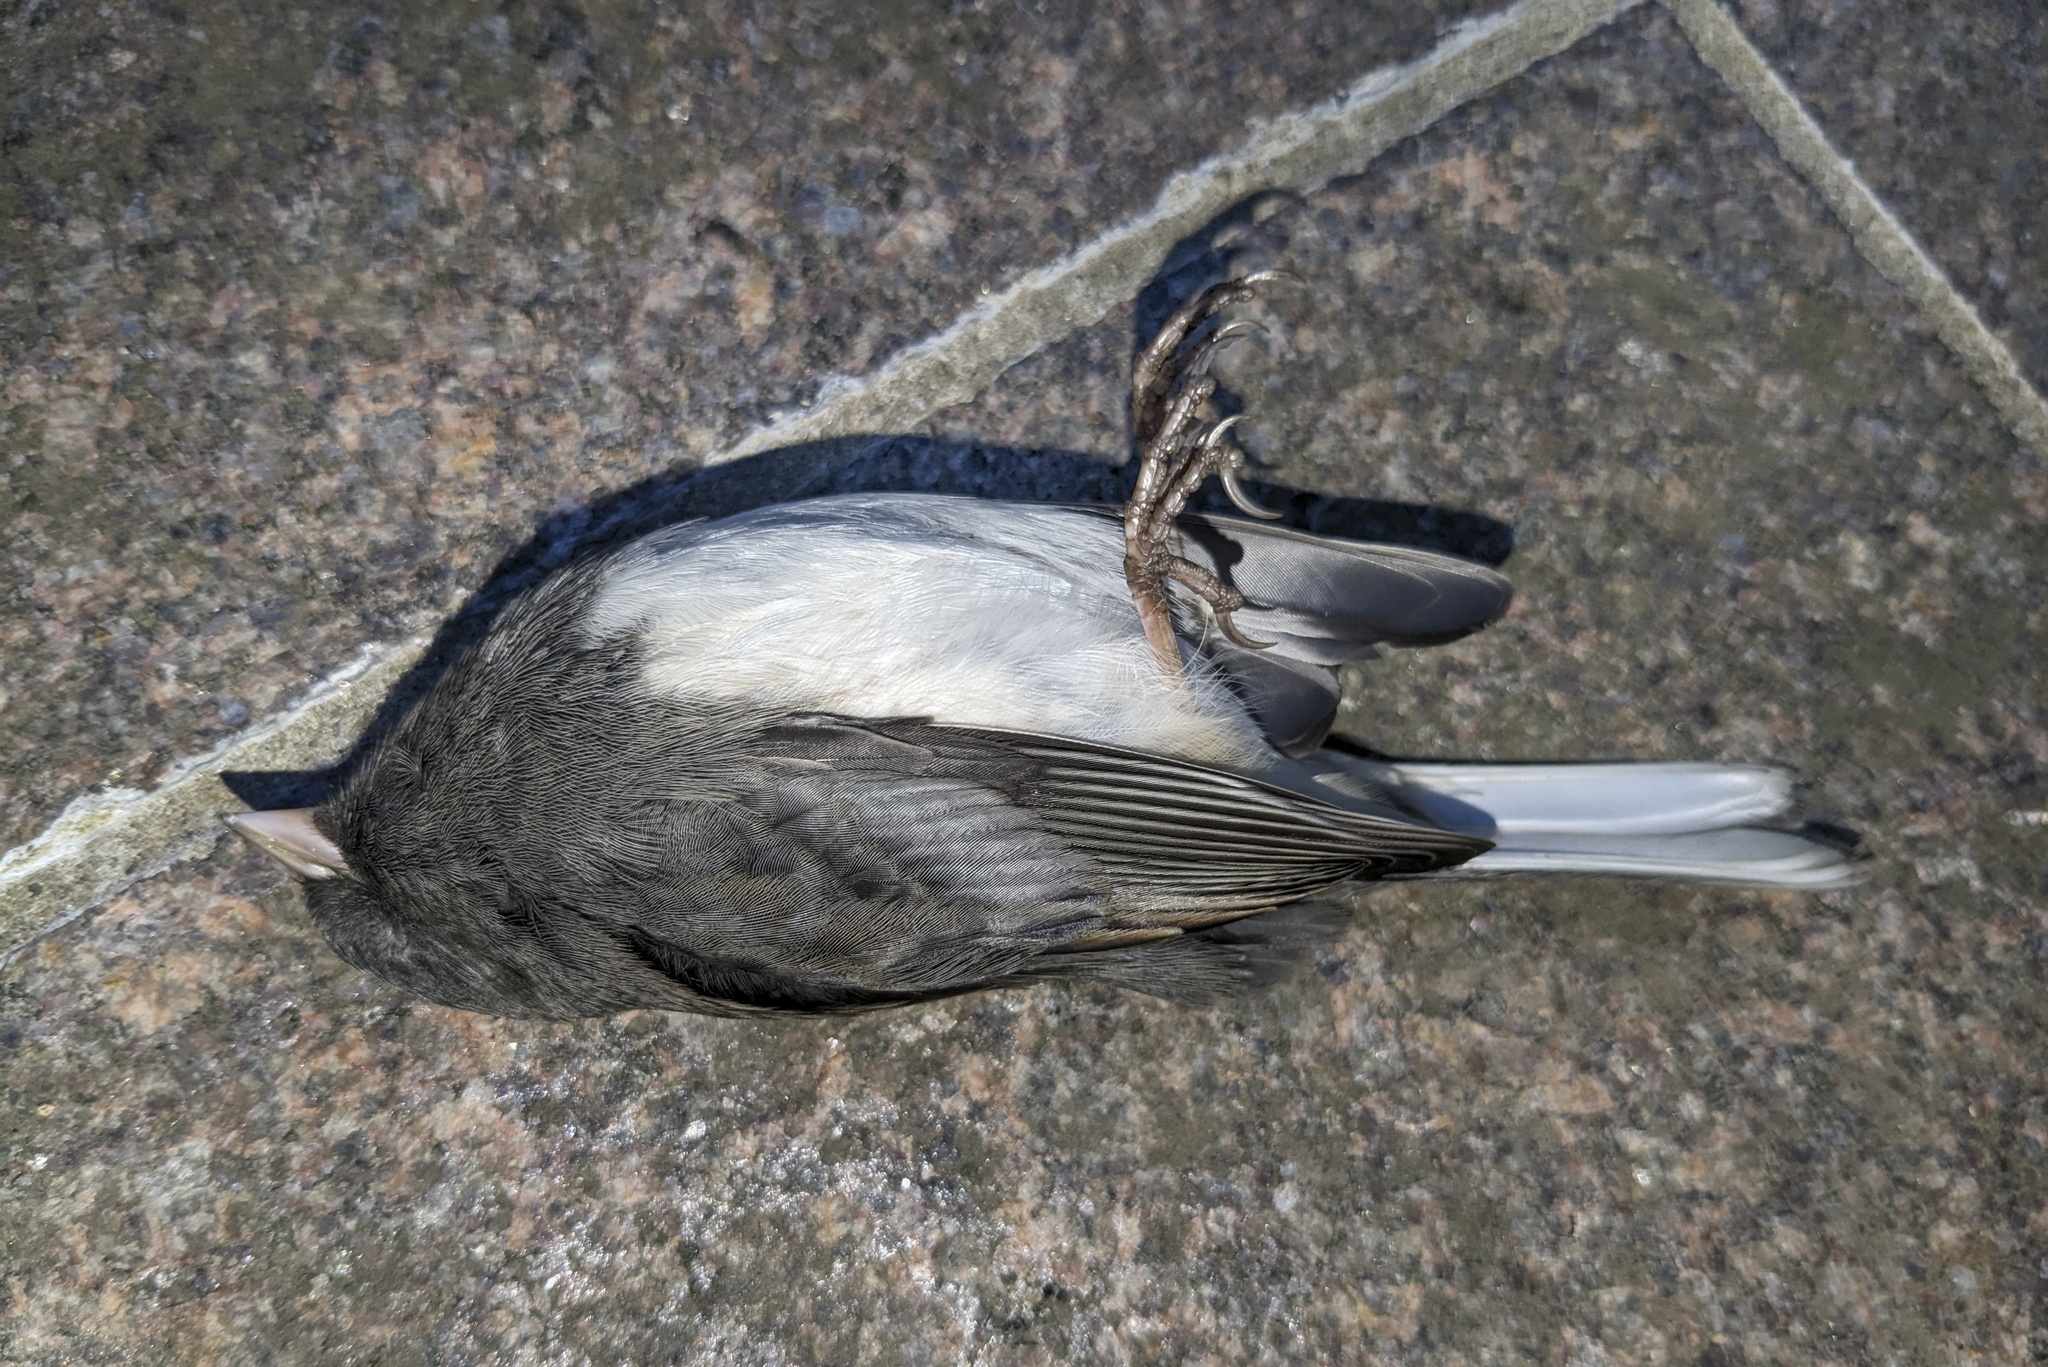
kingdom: Animalia
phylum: Chordata
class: Aves
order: Passeriformes
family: Passerellidae
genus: Junco
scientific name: Junco hyemalis
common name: Dark-eyed junco
